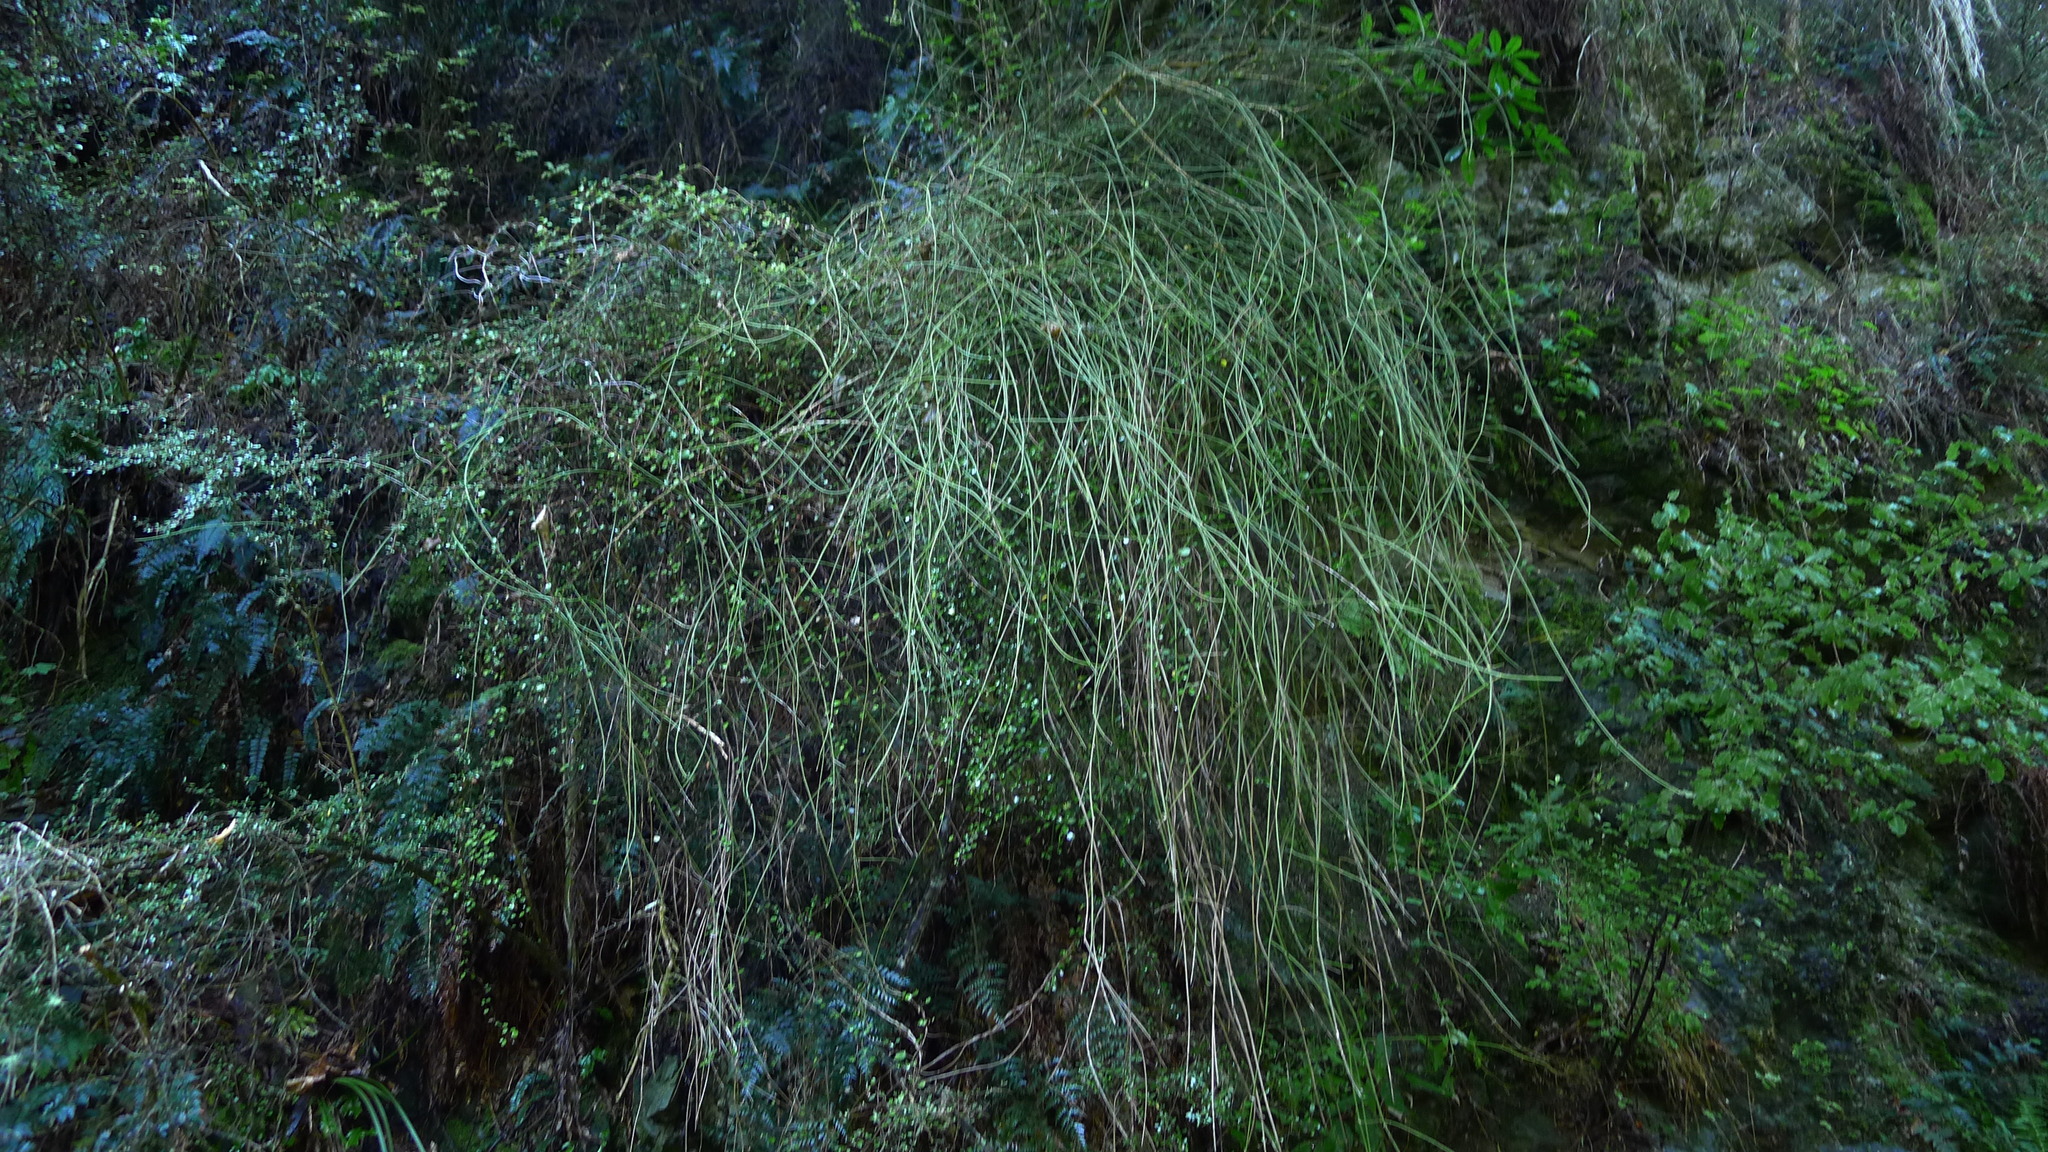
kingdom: Plantae
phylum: Tracheophyta
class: Magnoliopsida
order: Ranunculales
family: Ranunculaceae
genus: Clematis
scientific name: Clematis afoliata
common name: Rush-stem clematis
